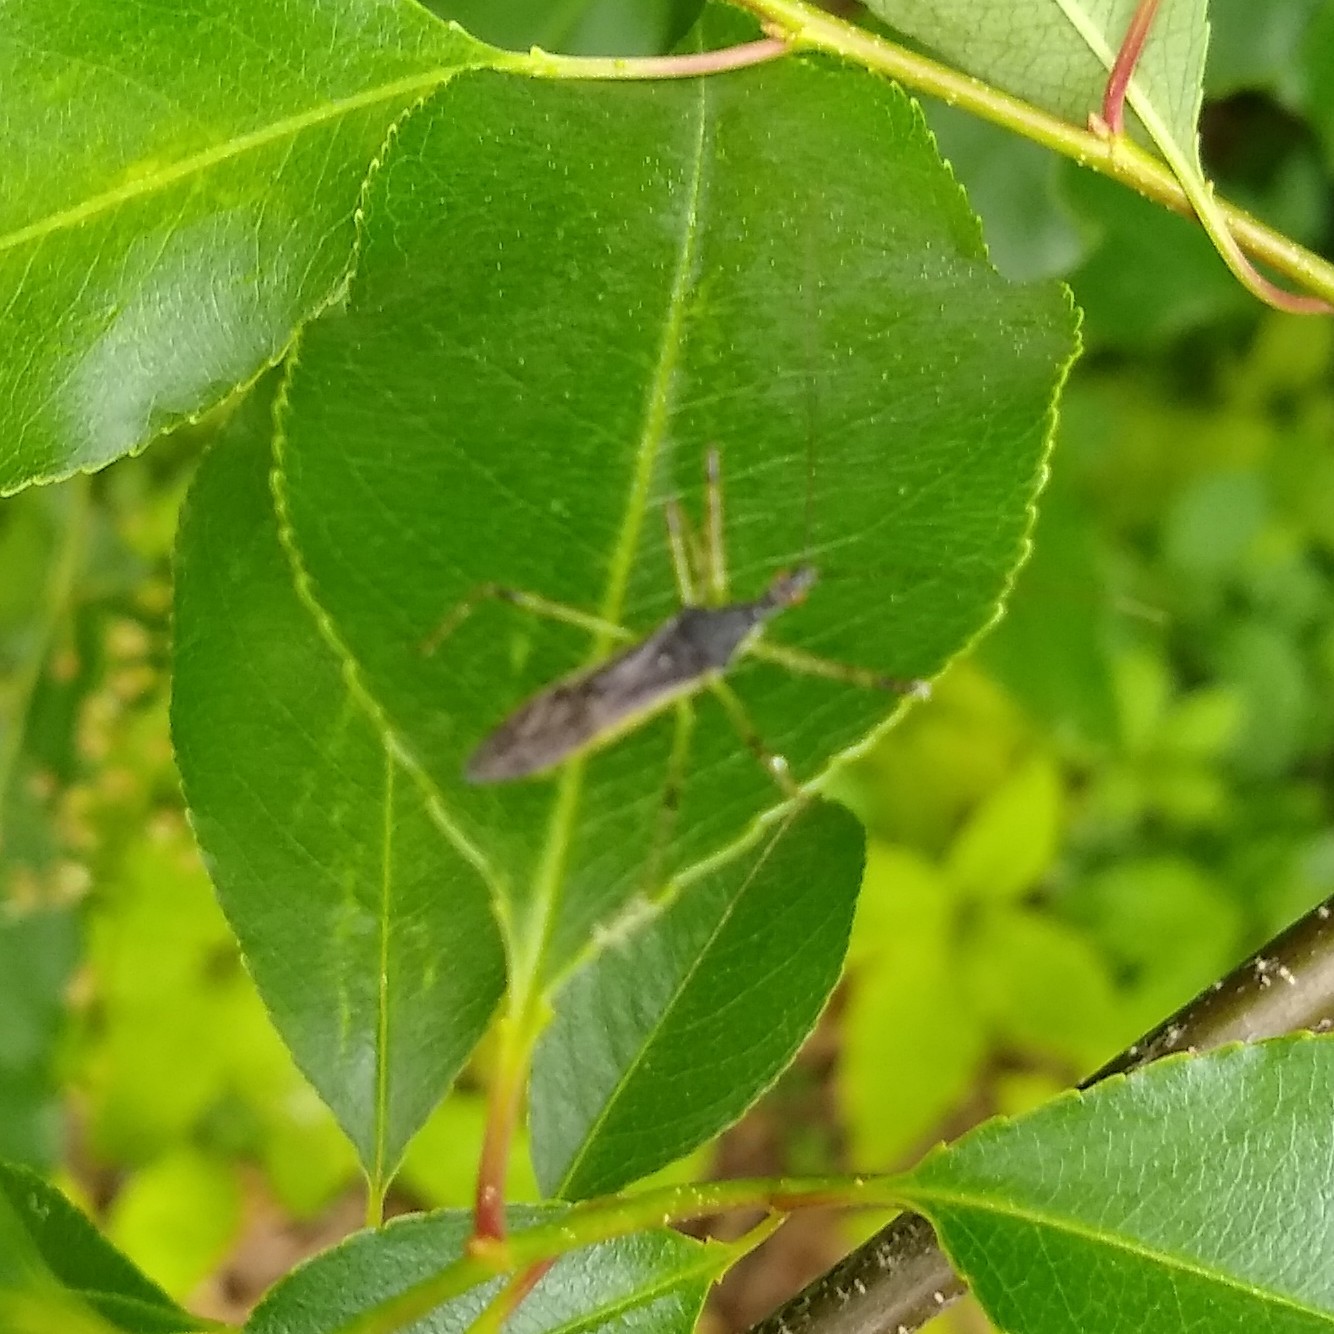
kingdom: Animalia
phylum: Arthropoda
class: Insecta
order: Hemiptera
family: Reduviidae
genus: Zelus
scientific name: Zelus luridus
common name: Pale green assassin bug
